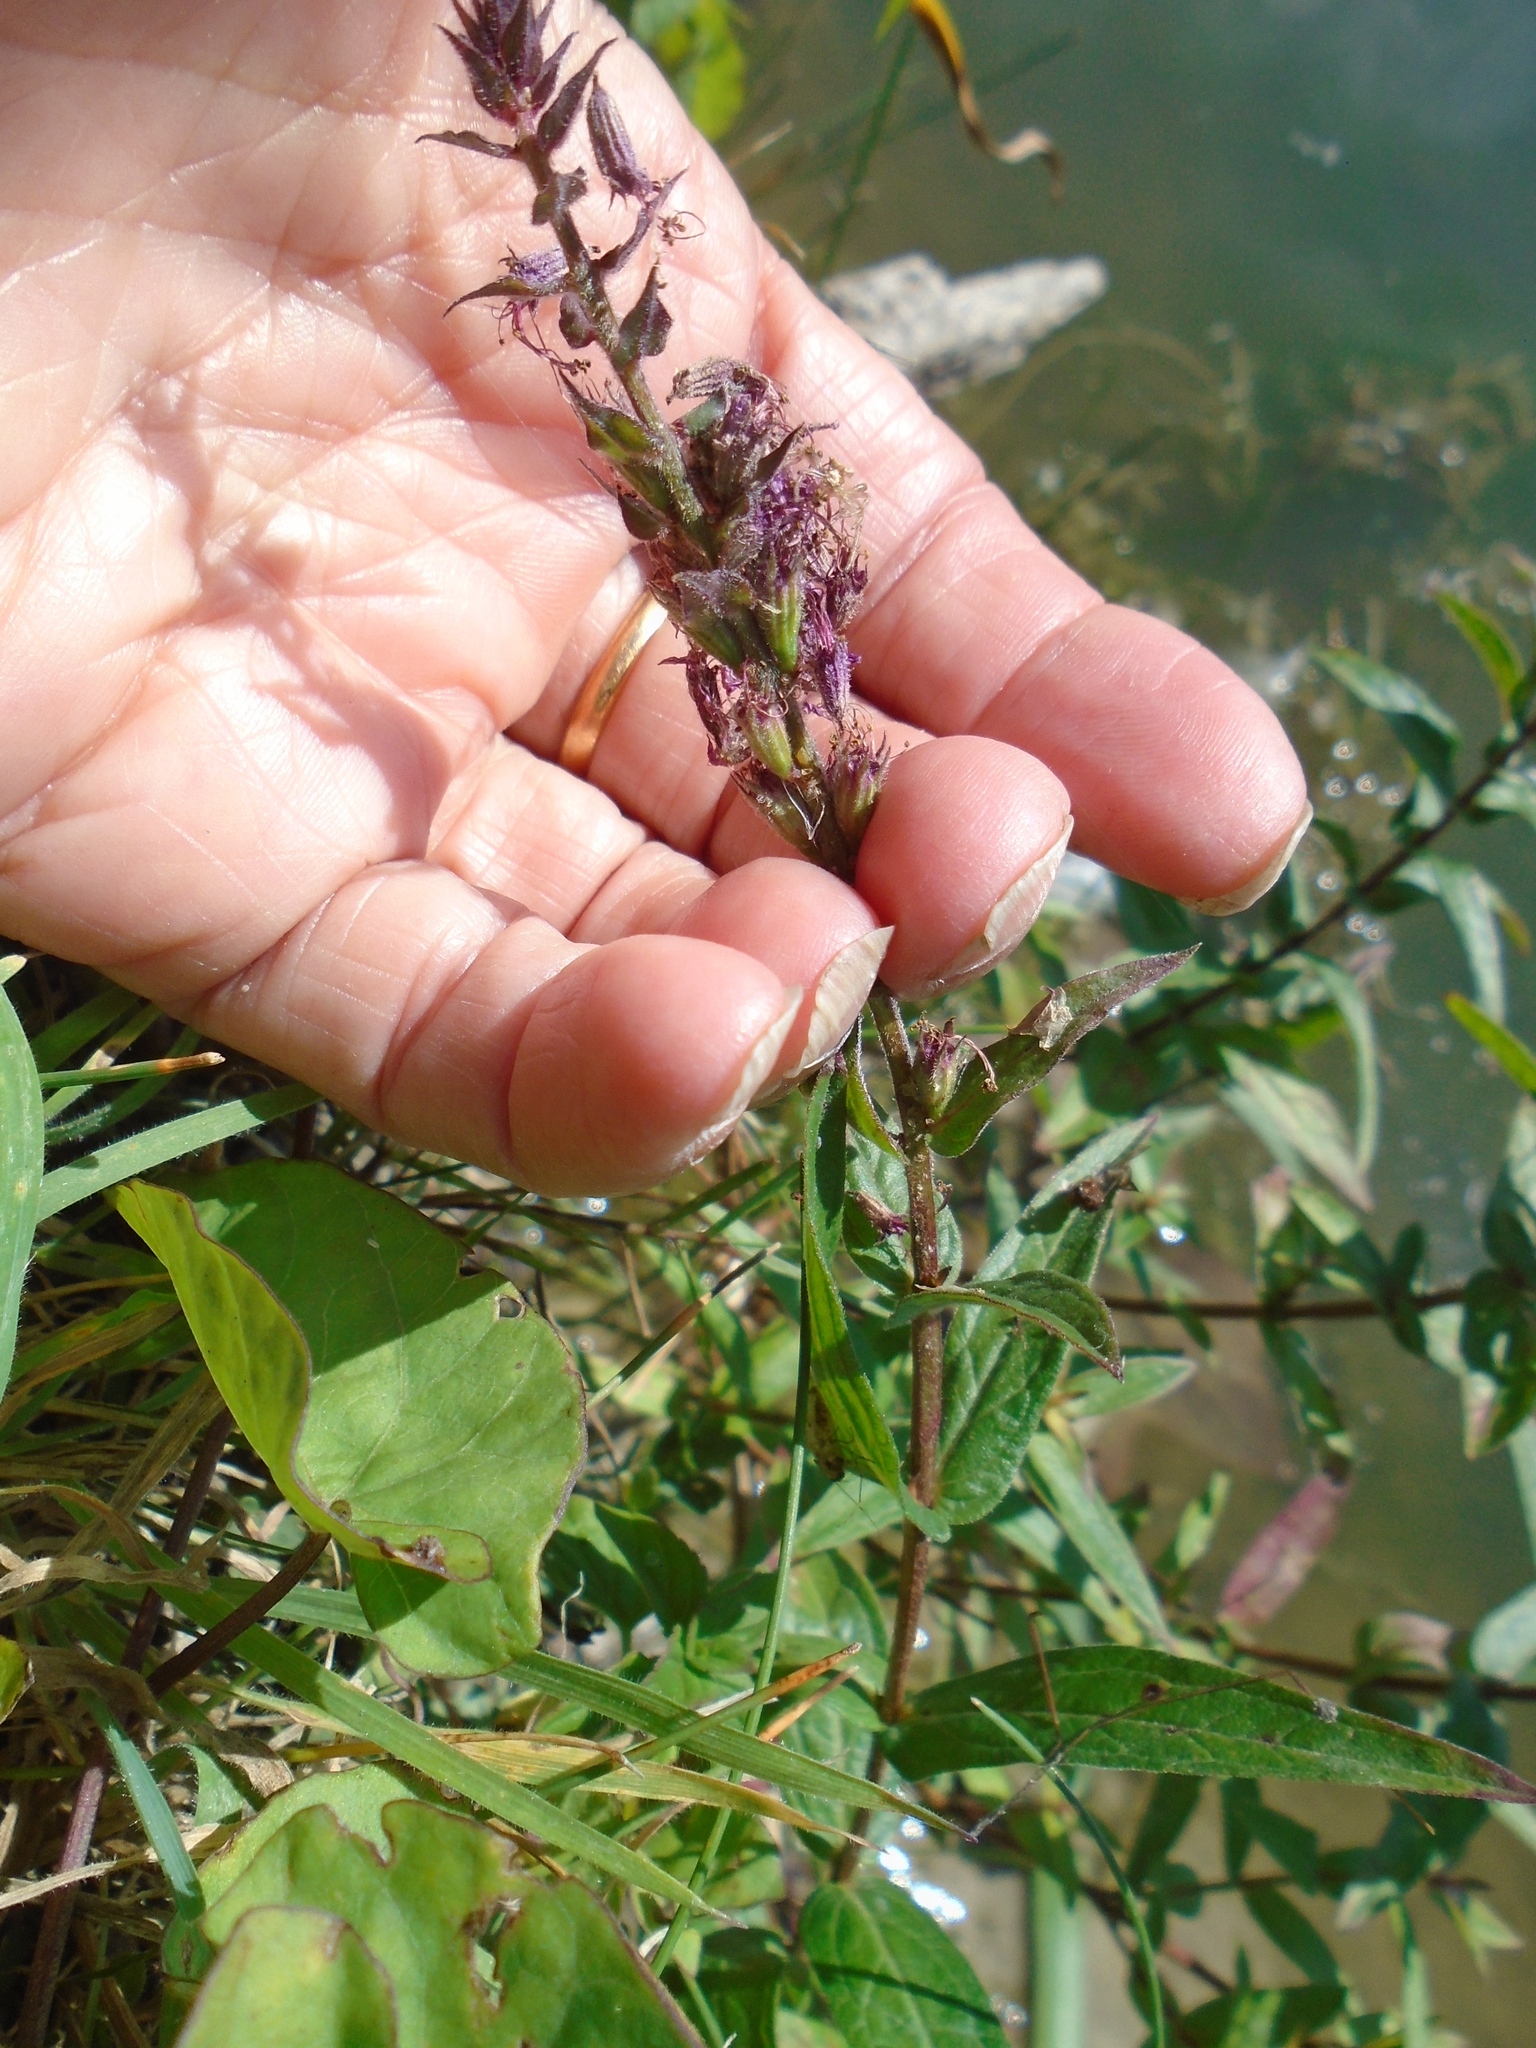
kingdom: Plantae
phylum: Tracheophyta
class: Magnoliopsida
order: Myrtales
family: Lythraceae
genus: Lythrum
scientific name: Lythrum salicaria
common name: Purple loosestrife
